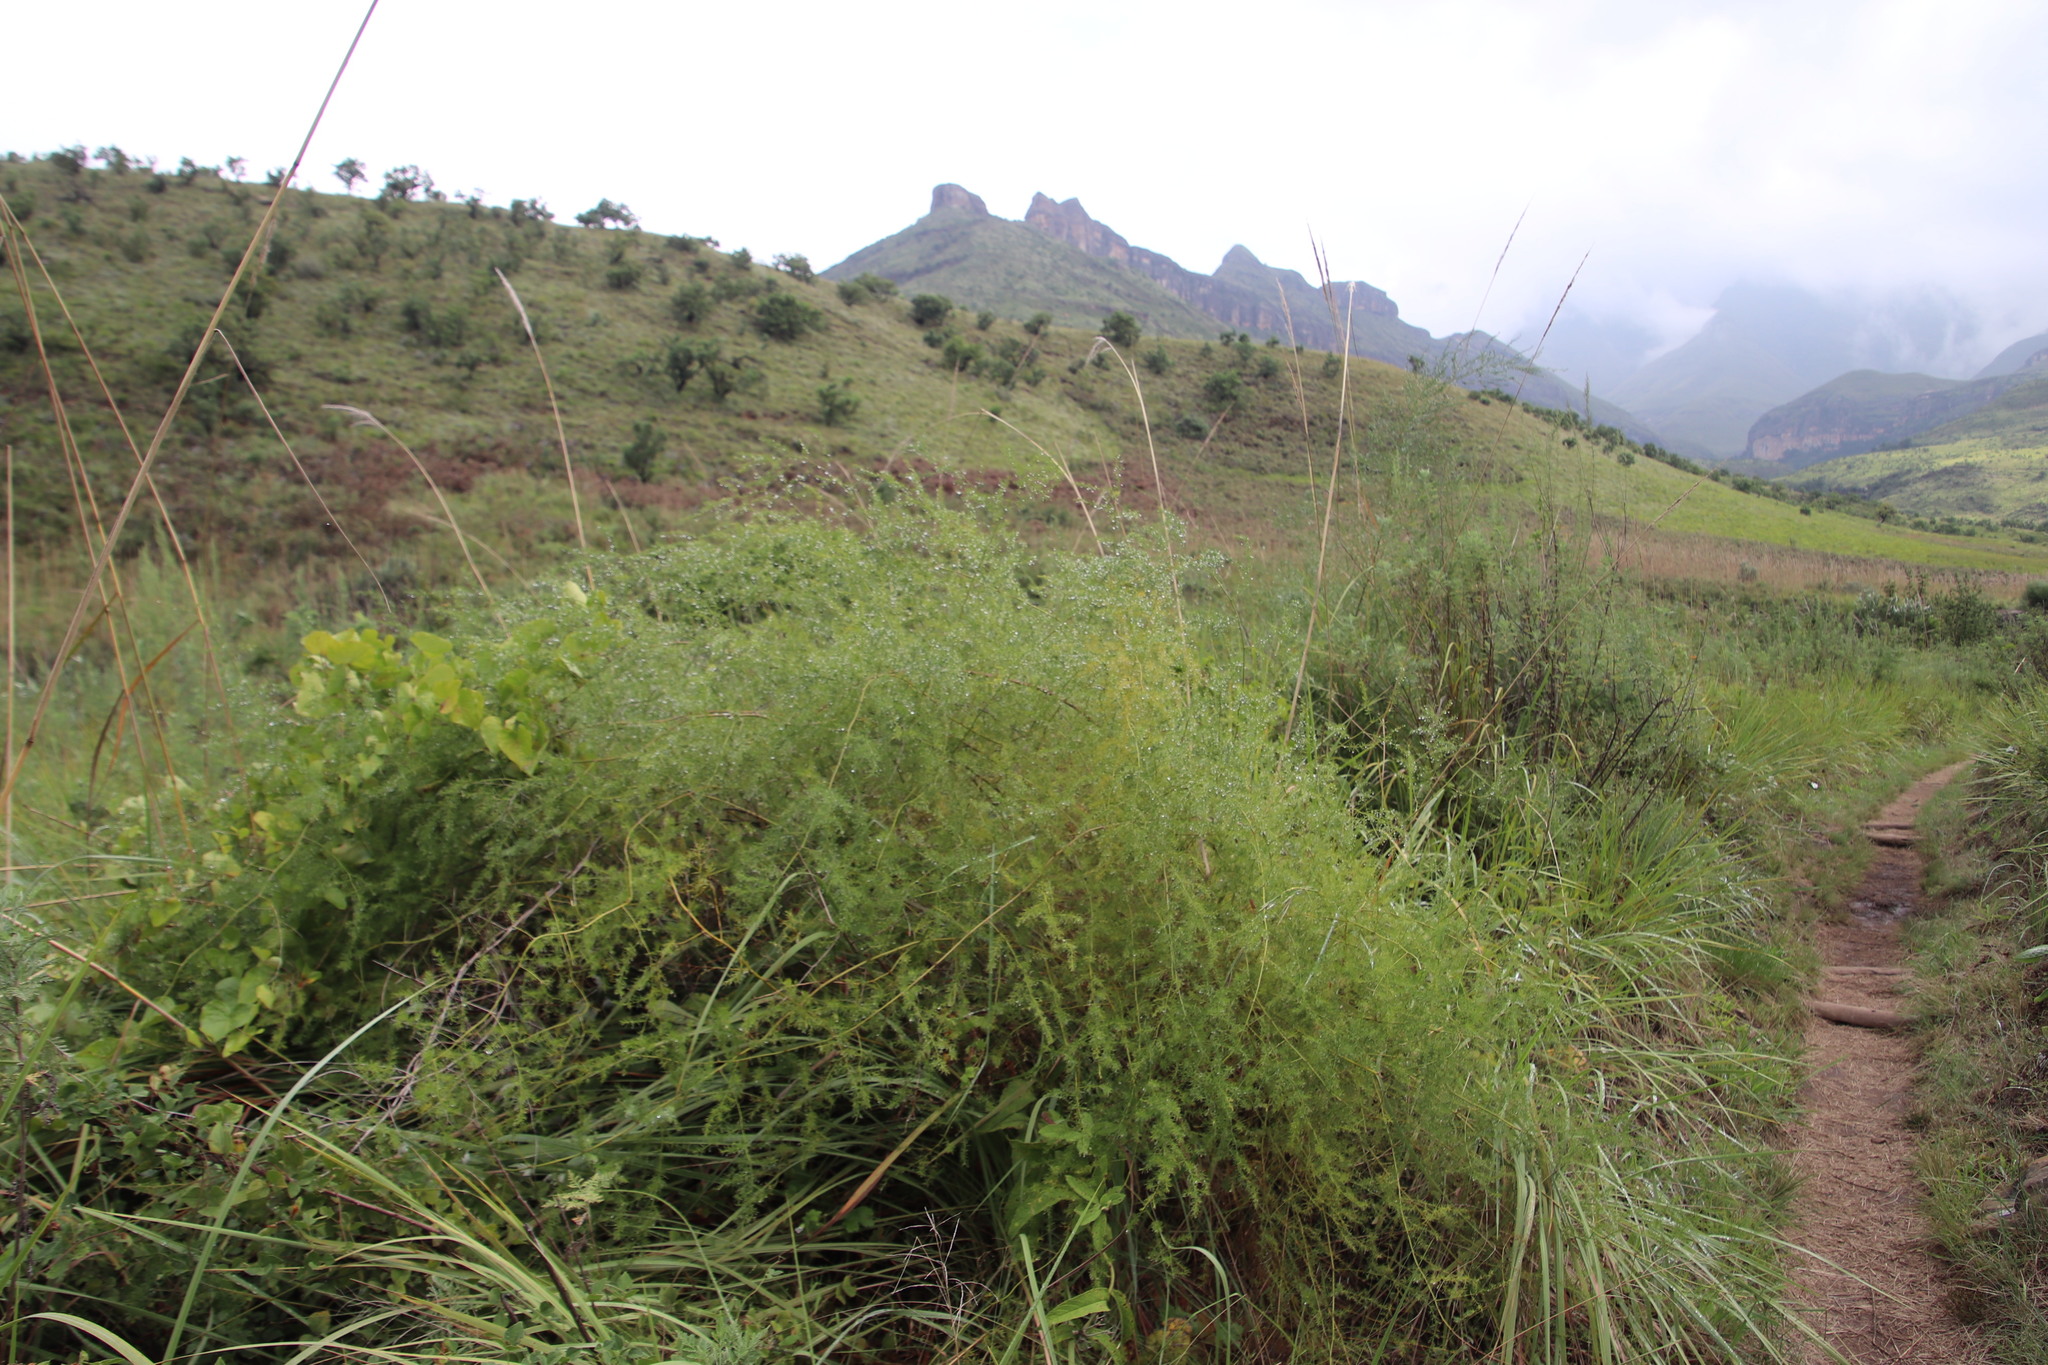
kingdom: Plantae
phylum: Tracheophyta
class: Liliopsida
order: Asparagales
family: Asparagaceae
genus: Asparagus
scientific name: Asparagus africanus
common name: Asparagus-fern
